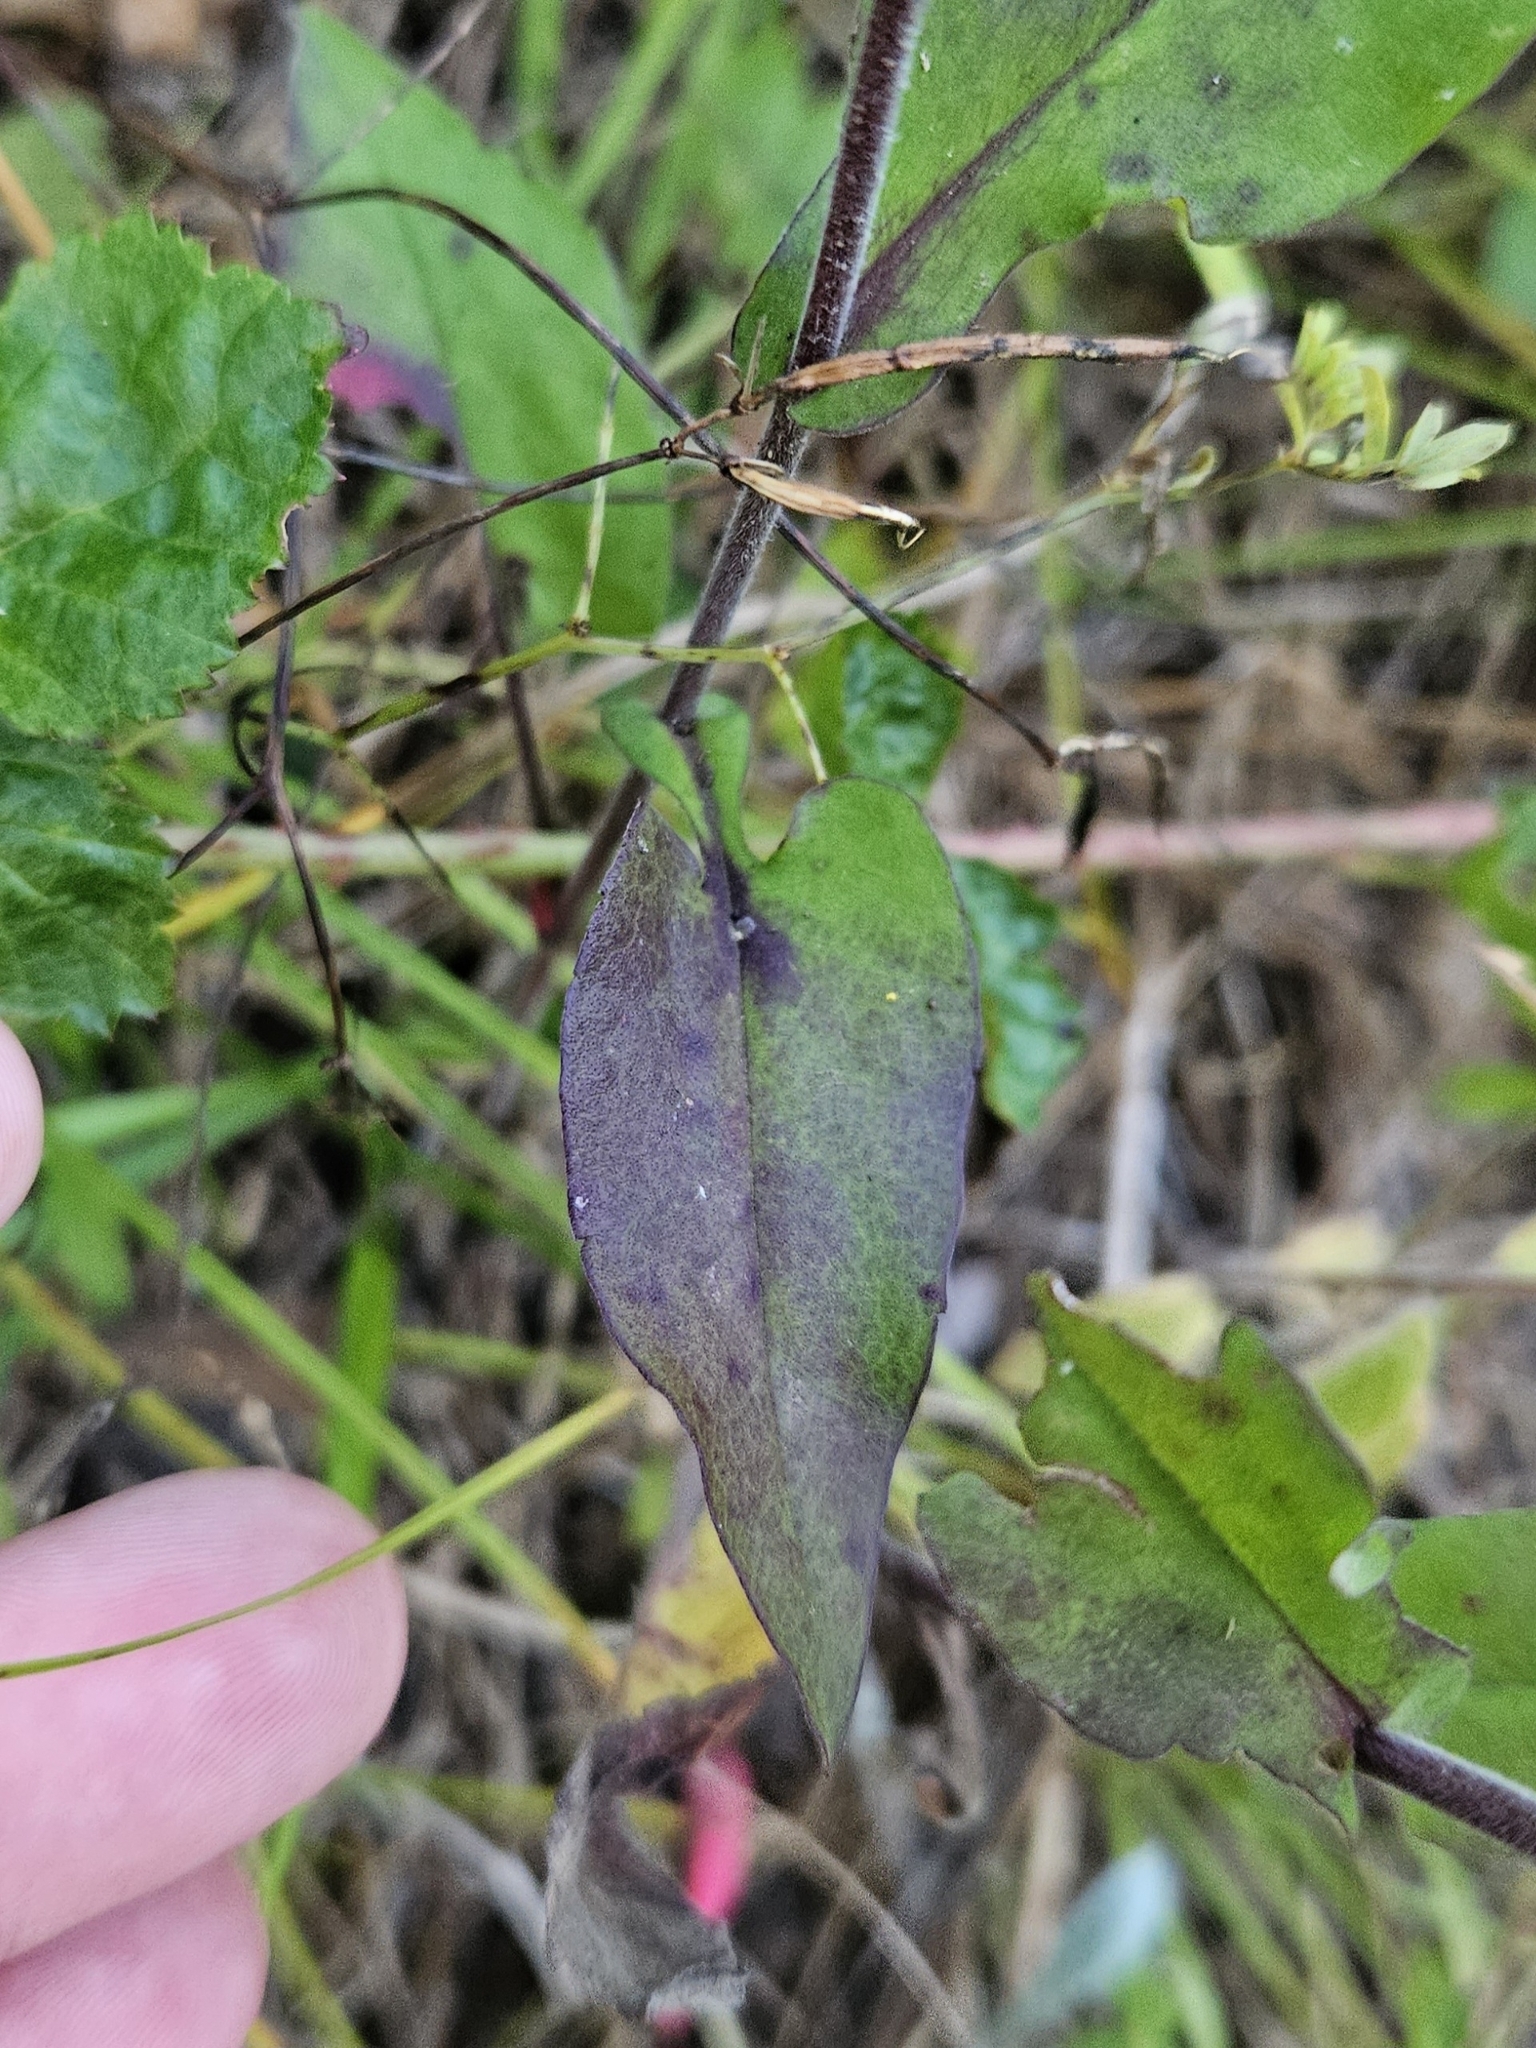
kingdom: Plantae
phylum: Tracheophyta
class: Magnoliopsida
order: Asterales
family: Asteraceae
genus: Symphyotrichum
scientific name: Symphyotrichum undulatum
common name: Clasping heart-leaf aster
